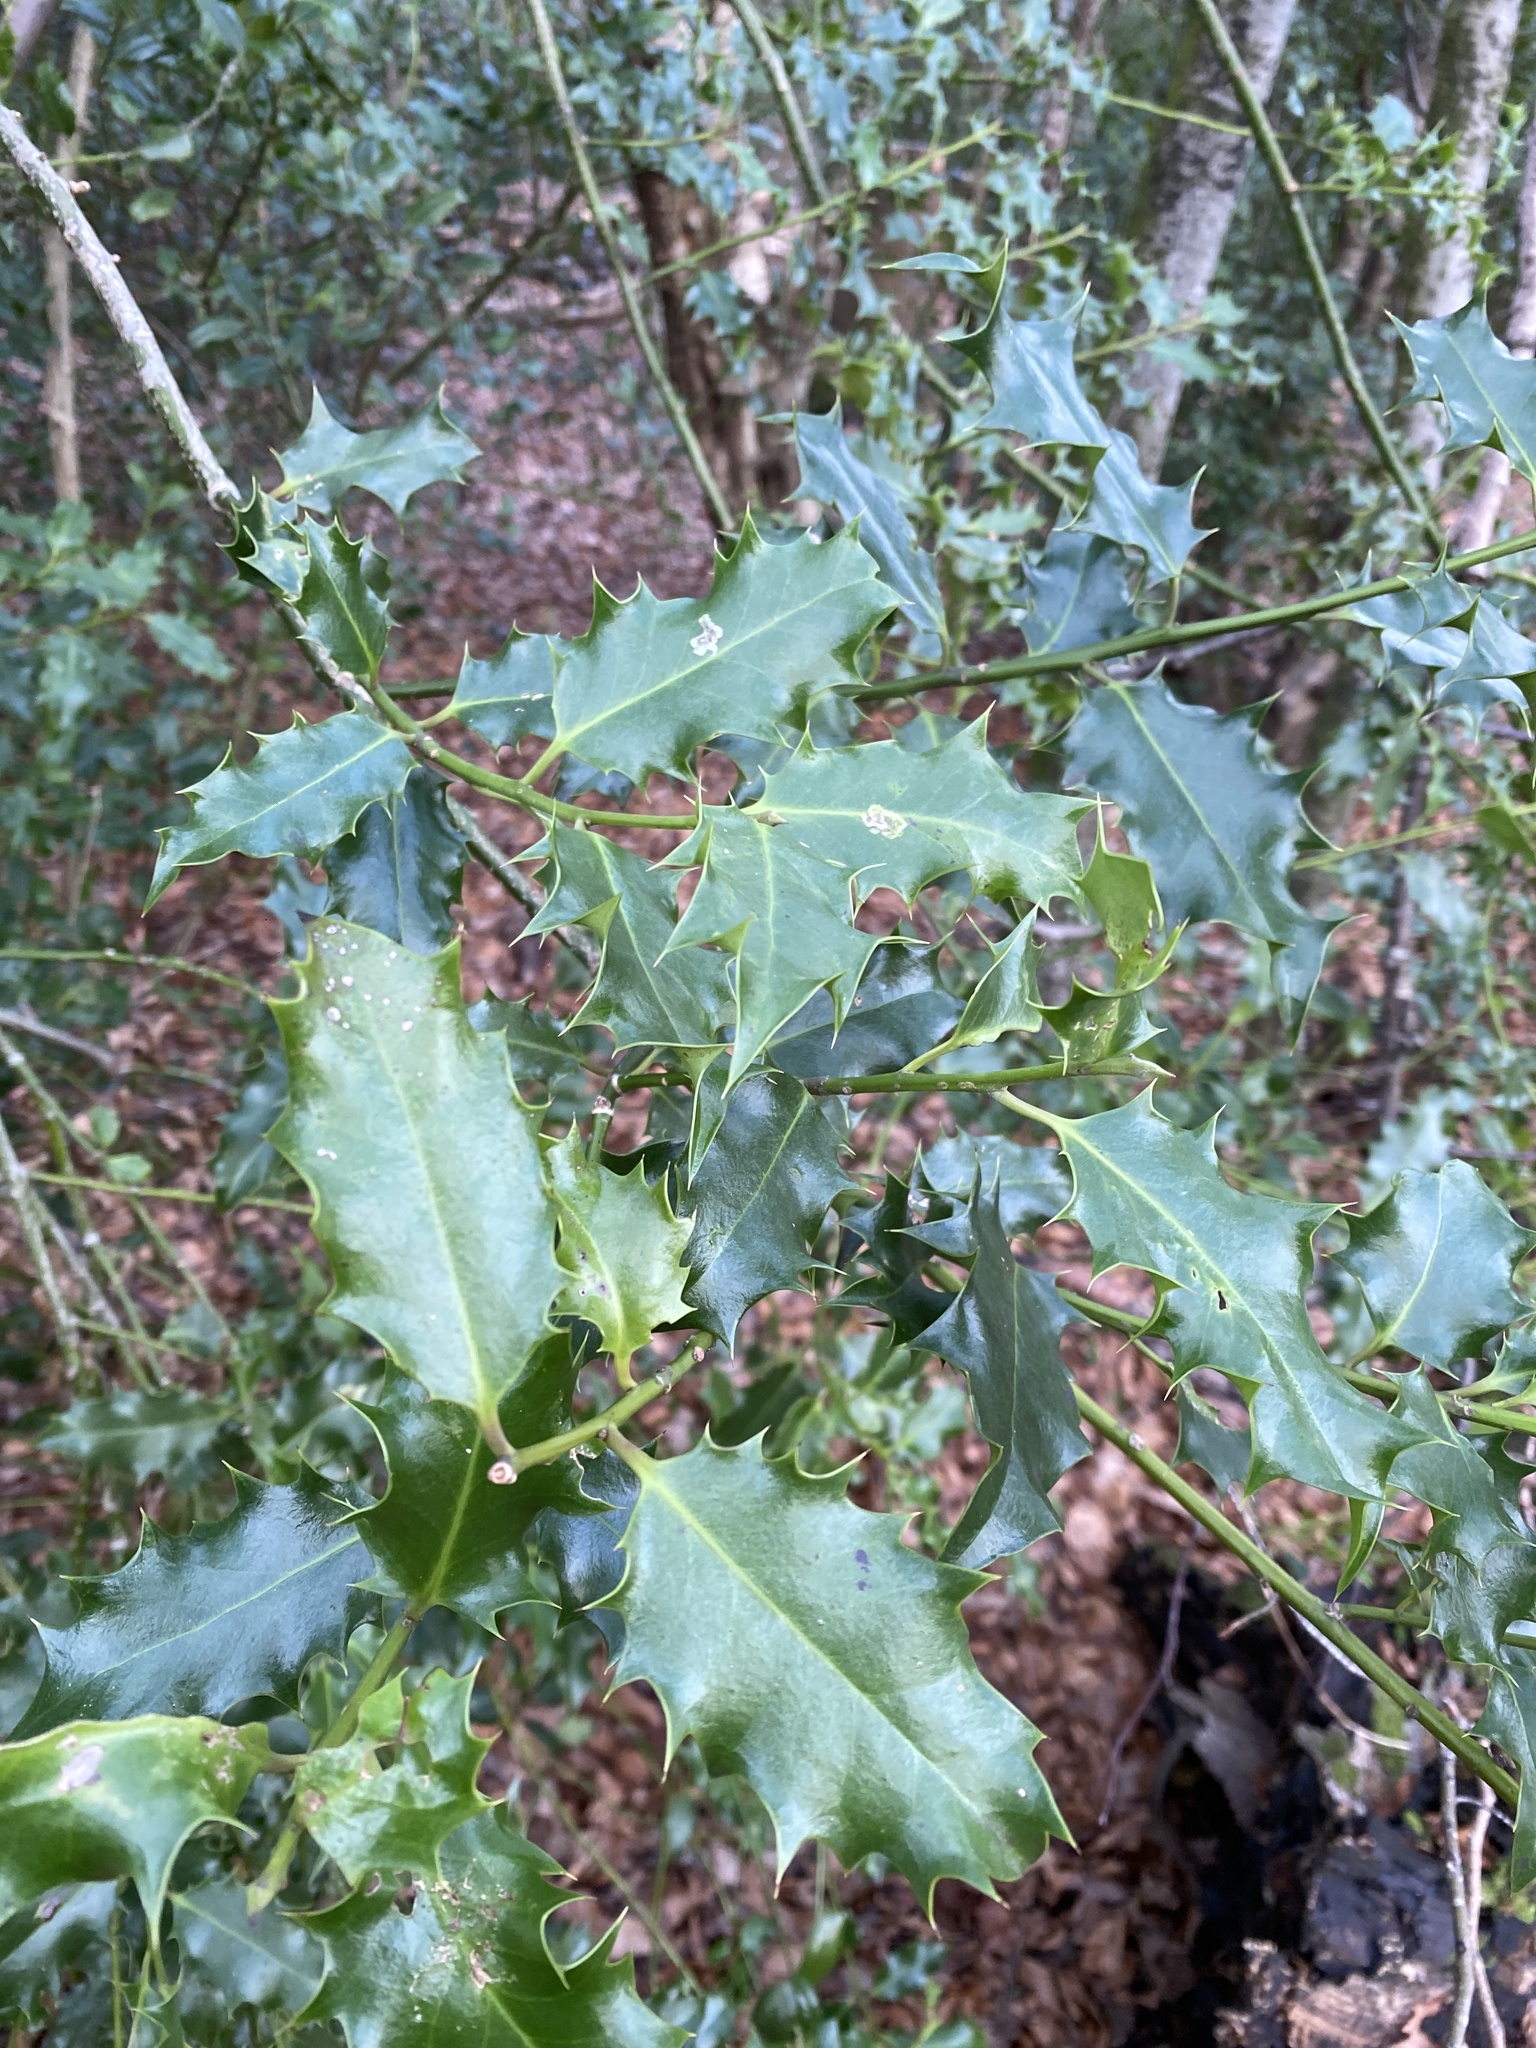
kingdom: Plantae
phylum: Tracheophyta
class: Magnoliopsida
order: Aquifoliales
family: Aquifoliaceae
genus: Ilex
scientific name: Ilex aquifolium
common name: English holly
